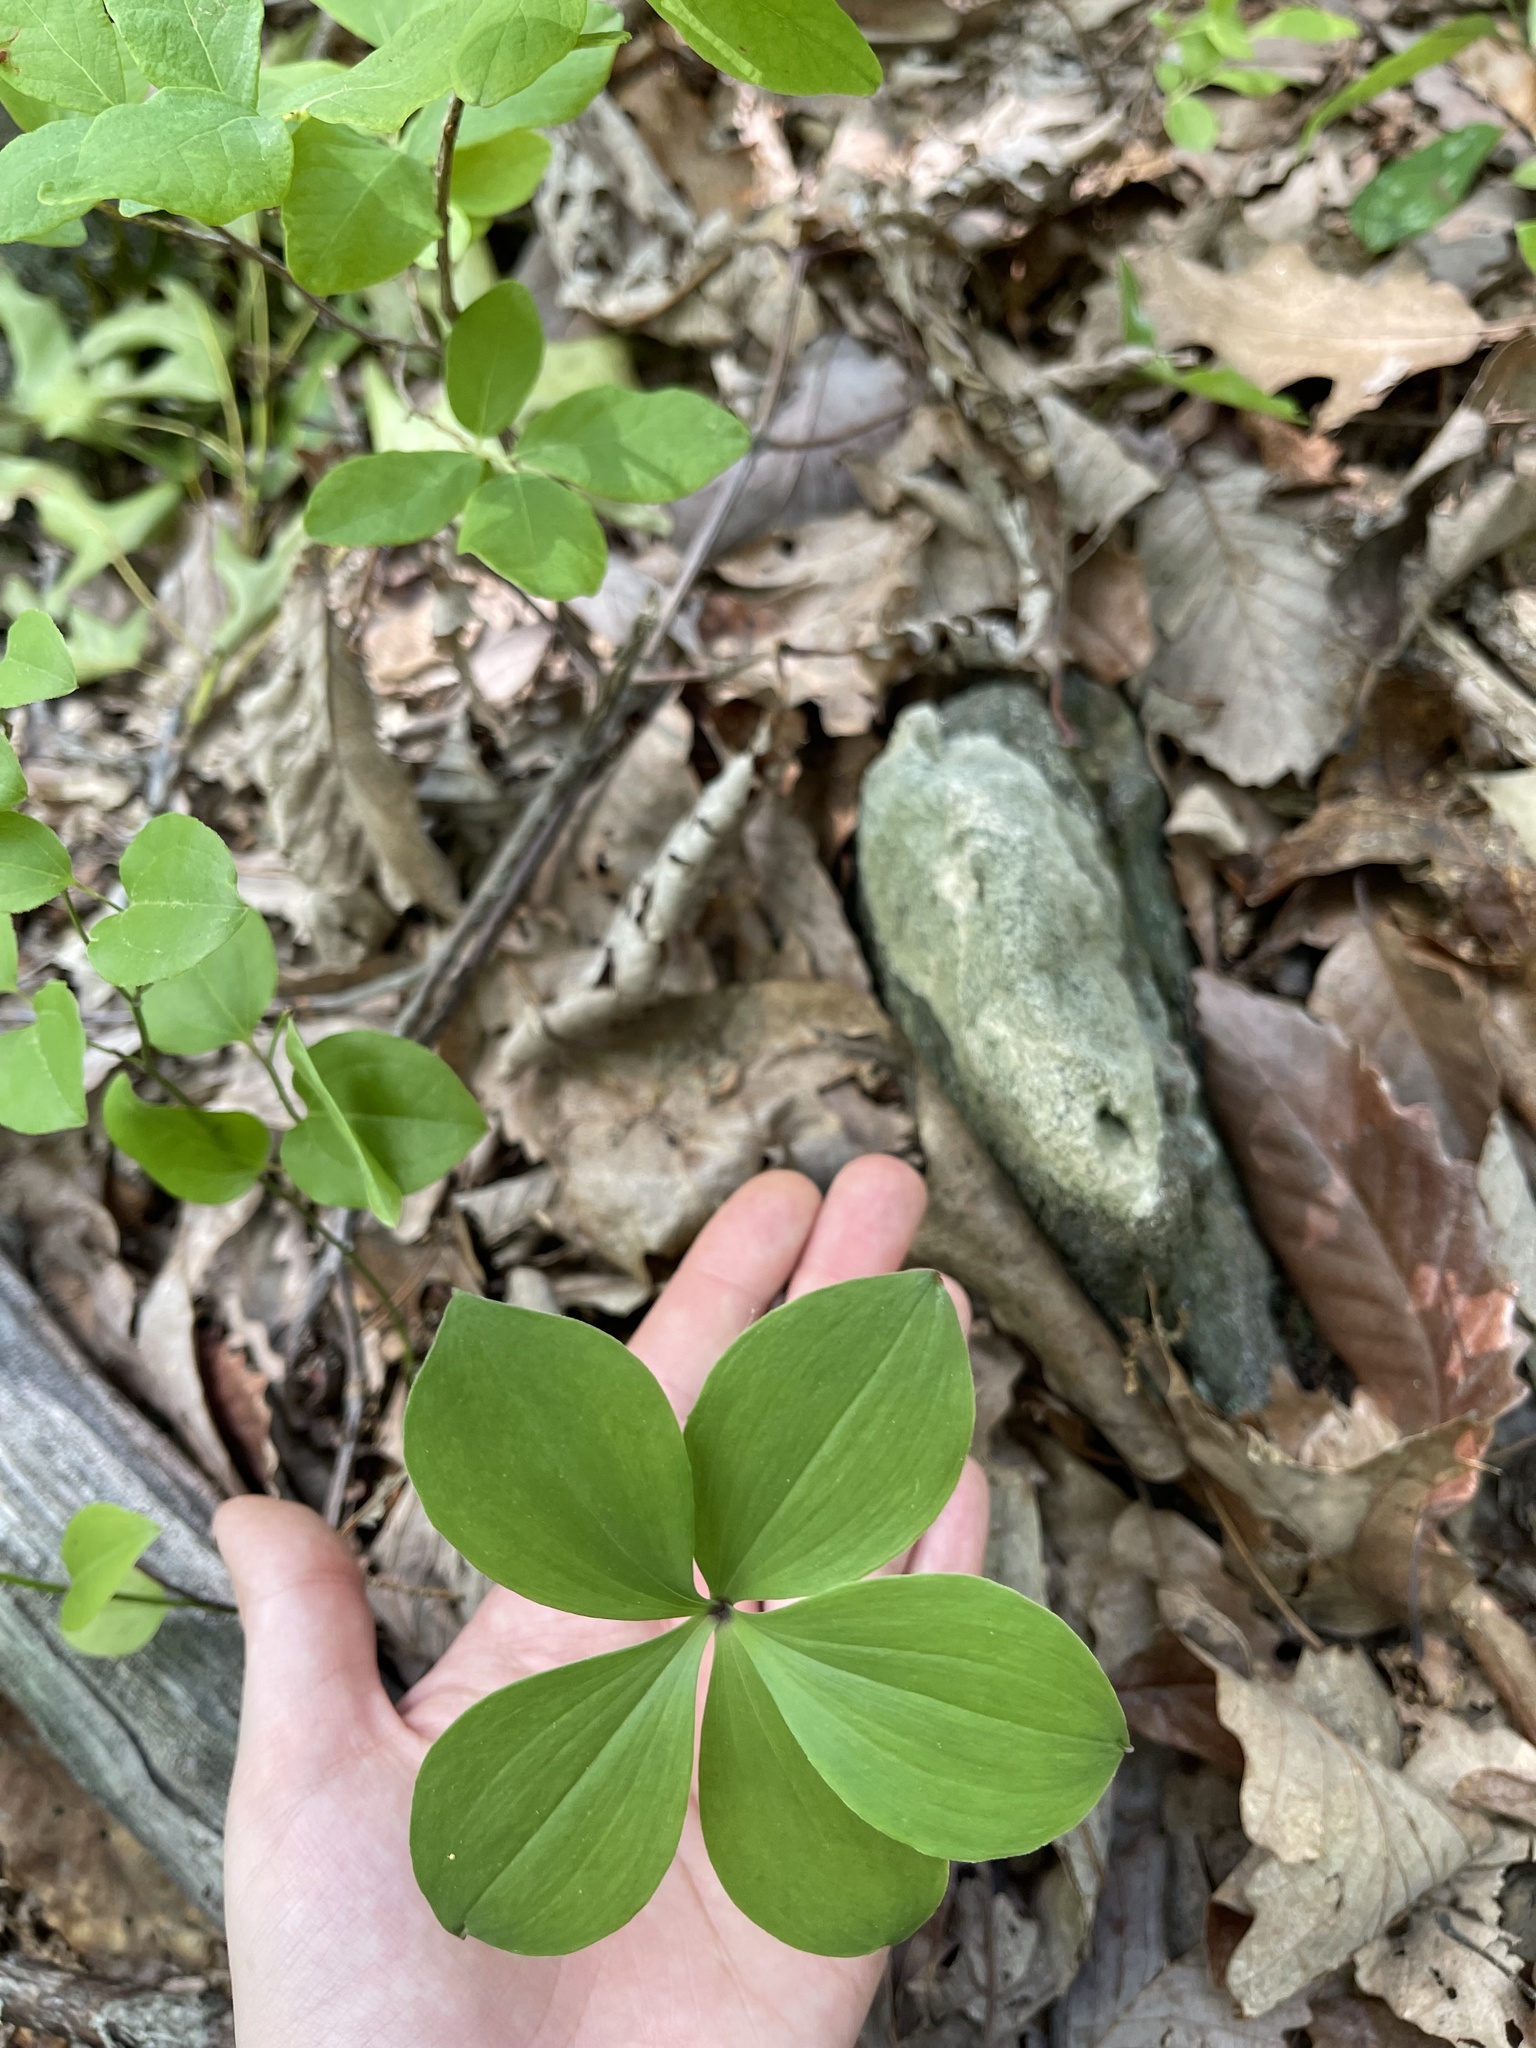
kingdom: Plantae
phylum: Tracheophyta
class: Liliopsida
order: Asparagales
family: Orchidaceae
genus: Isotria
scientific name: Isotria verticillata
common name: Large whorled pogonia
